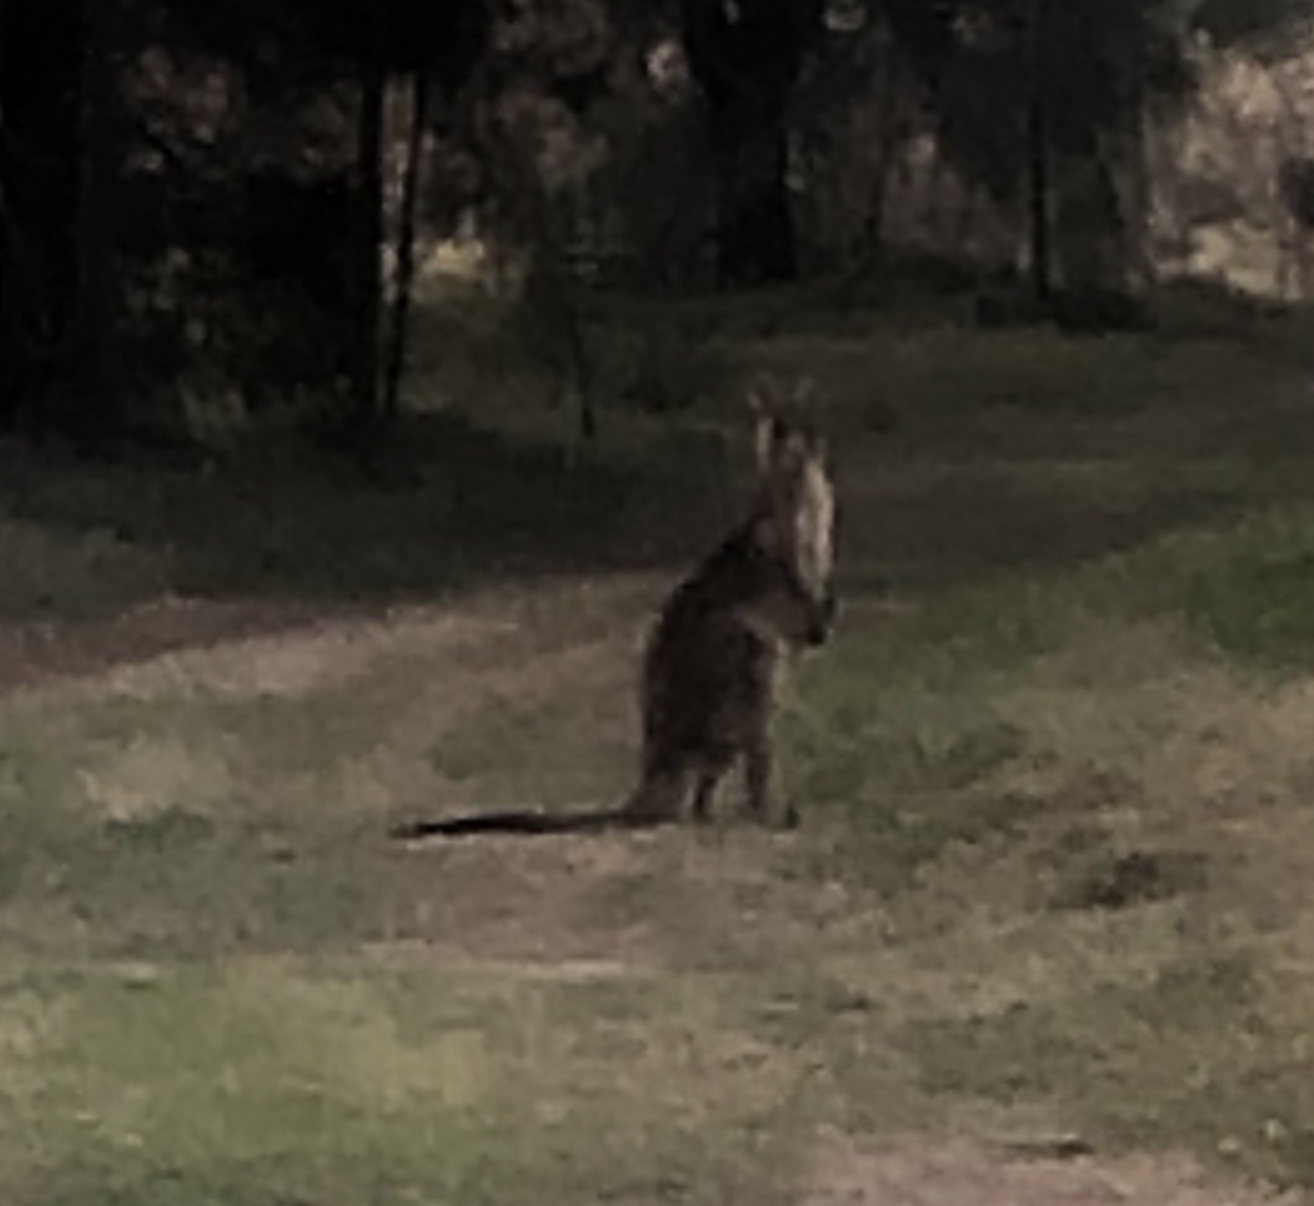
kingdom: Animalia
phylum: Chordata
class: Mammalia
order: Diprotodontia
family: Macropodidae
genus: Macropus
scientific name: Macropus giganteus
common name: Eastern grey kangaroo
